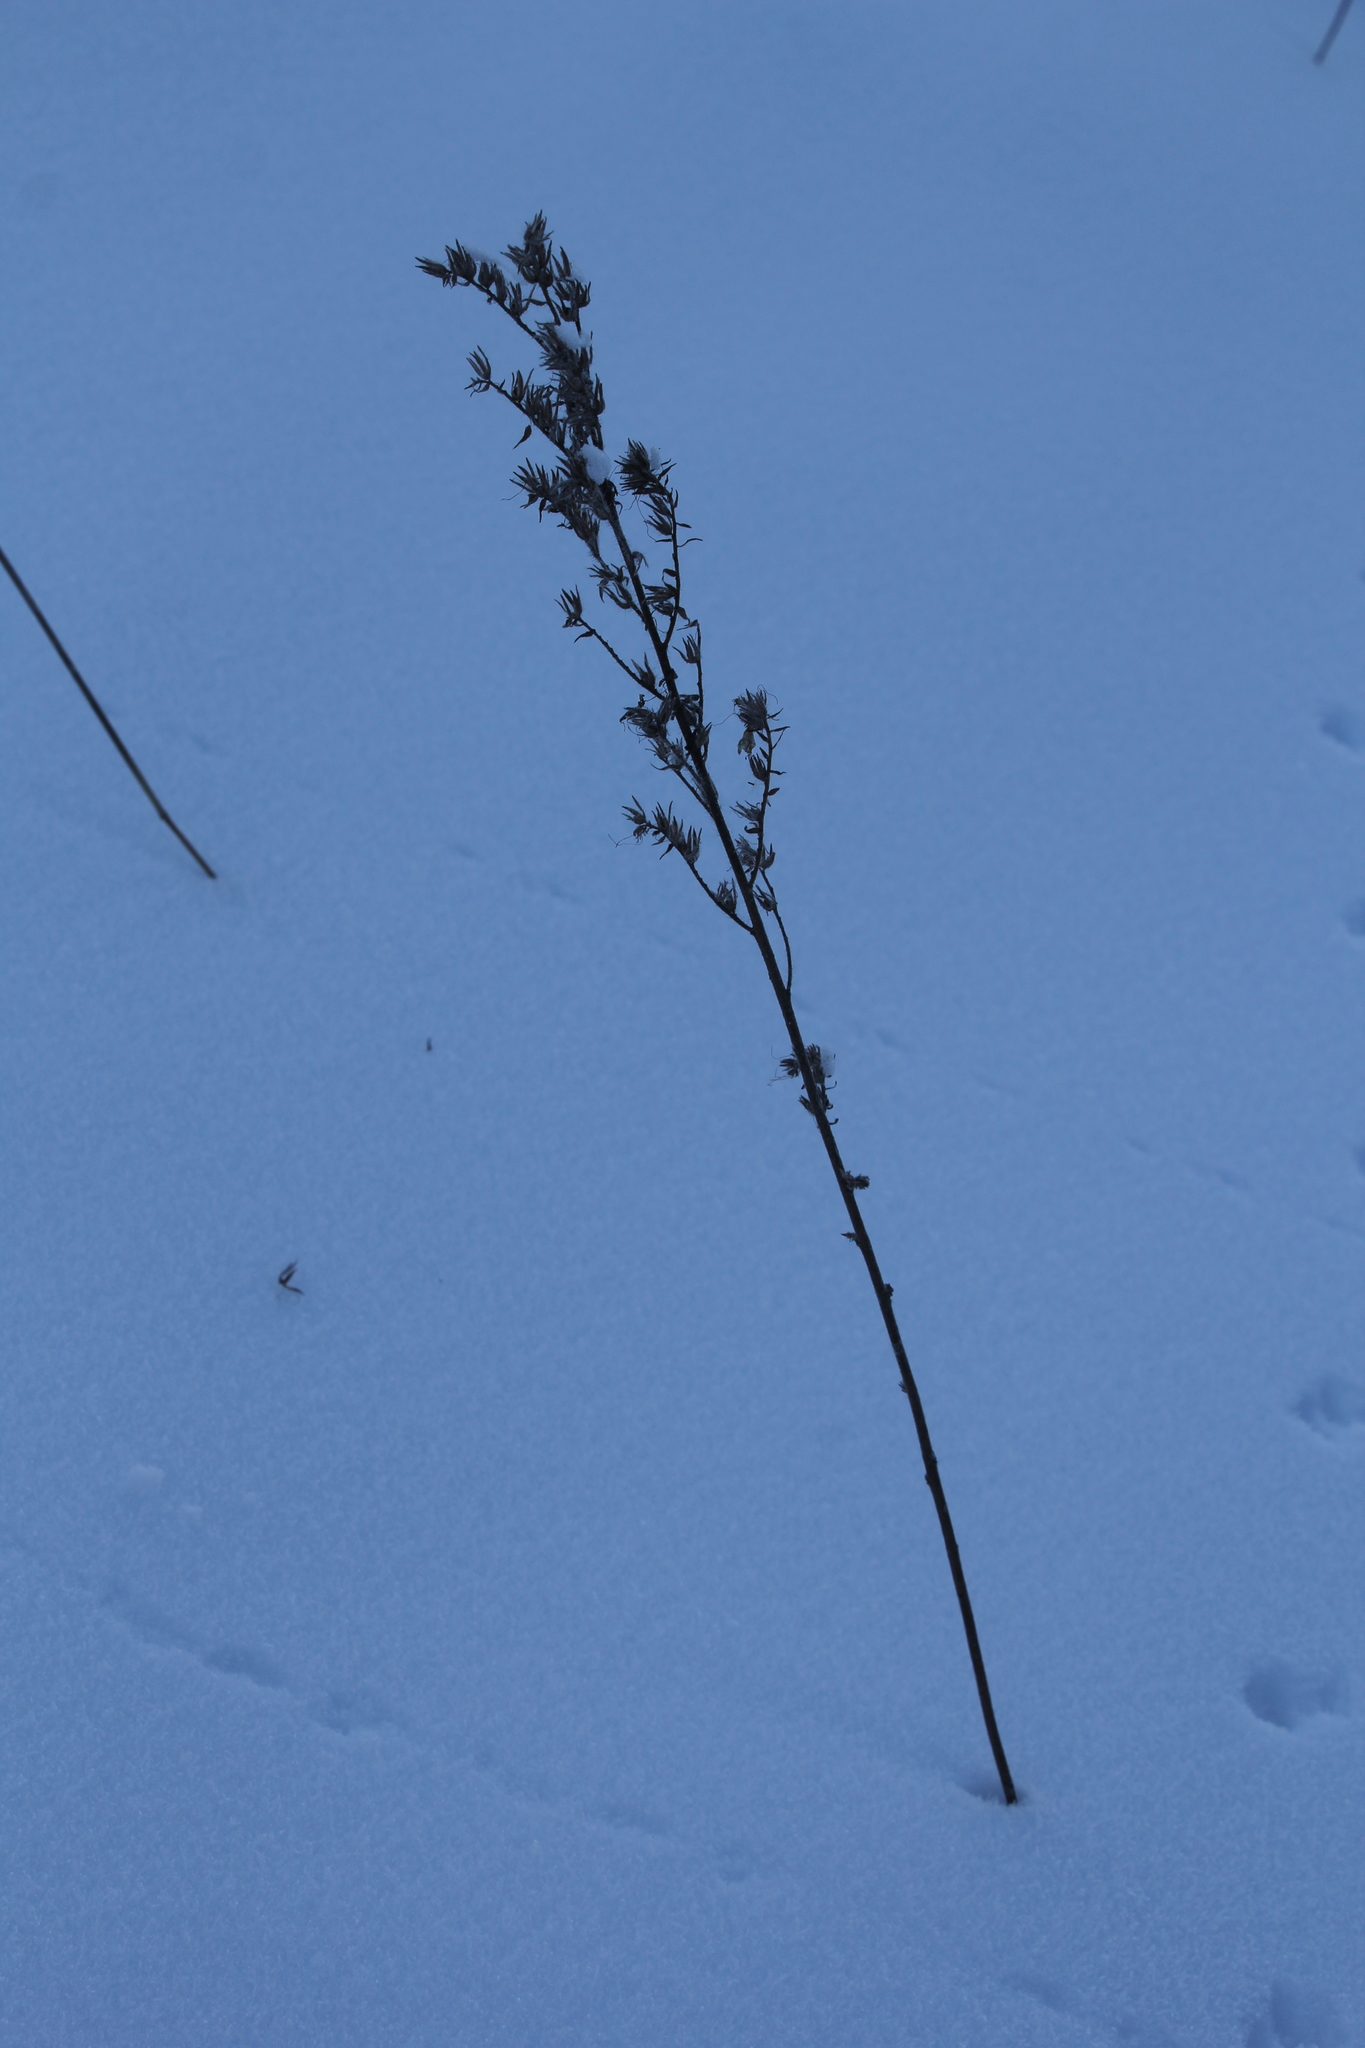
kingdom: Plantae
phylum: Tracheophyta
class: Magnoliopsida
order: Boraginales
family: Boraginaceae
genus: Echium
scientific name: Echium vulgare
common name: Common viper's bugloss
